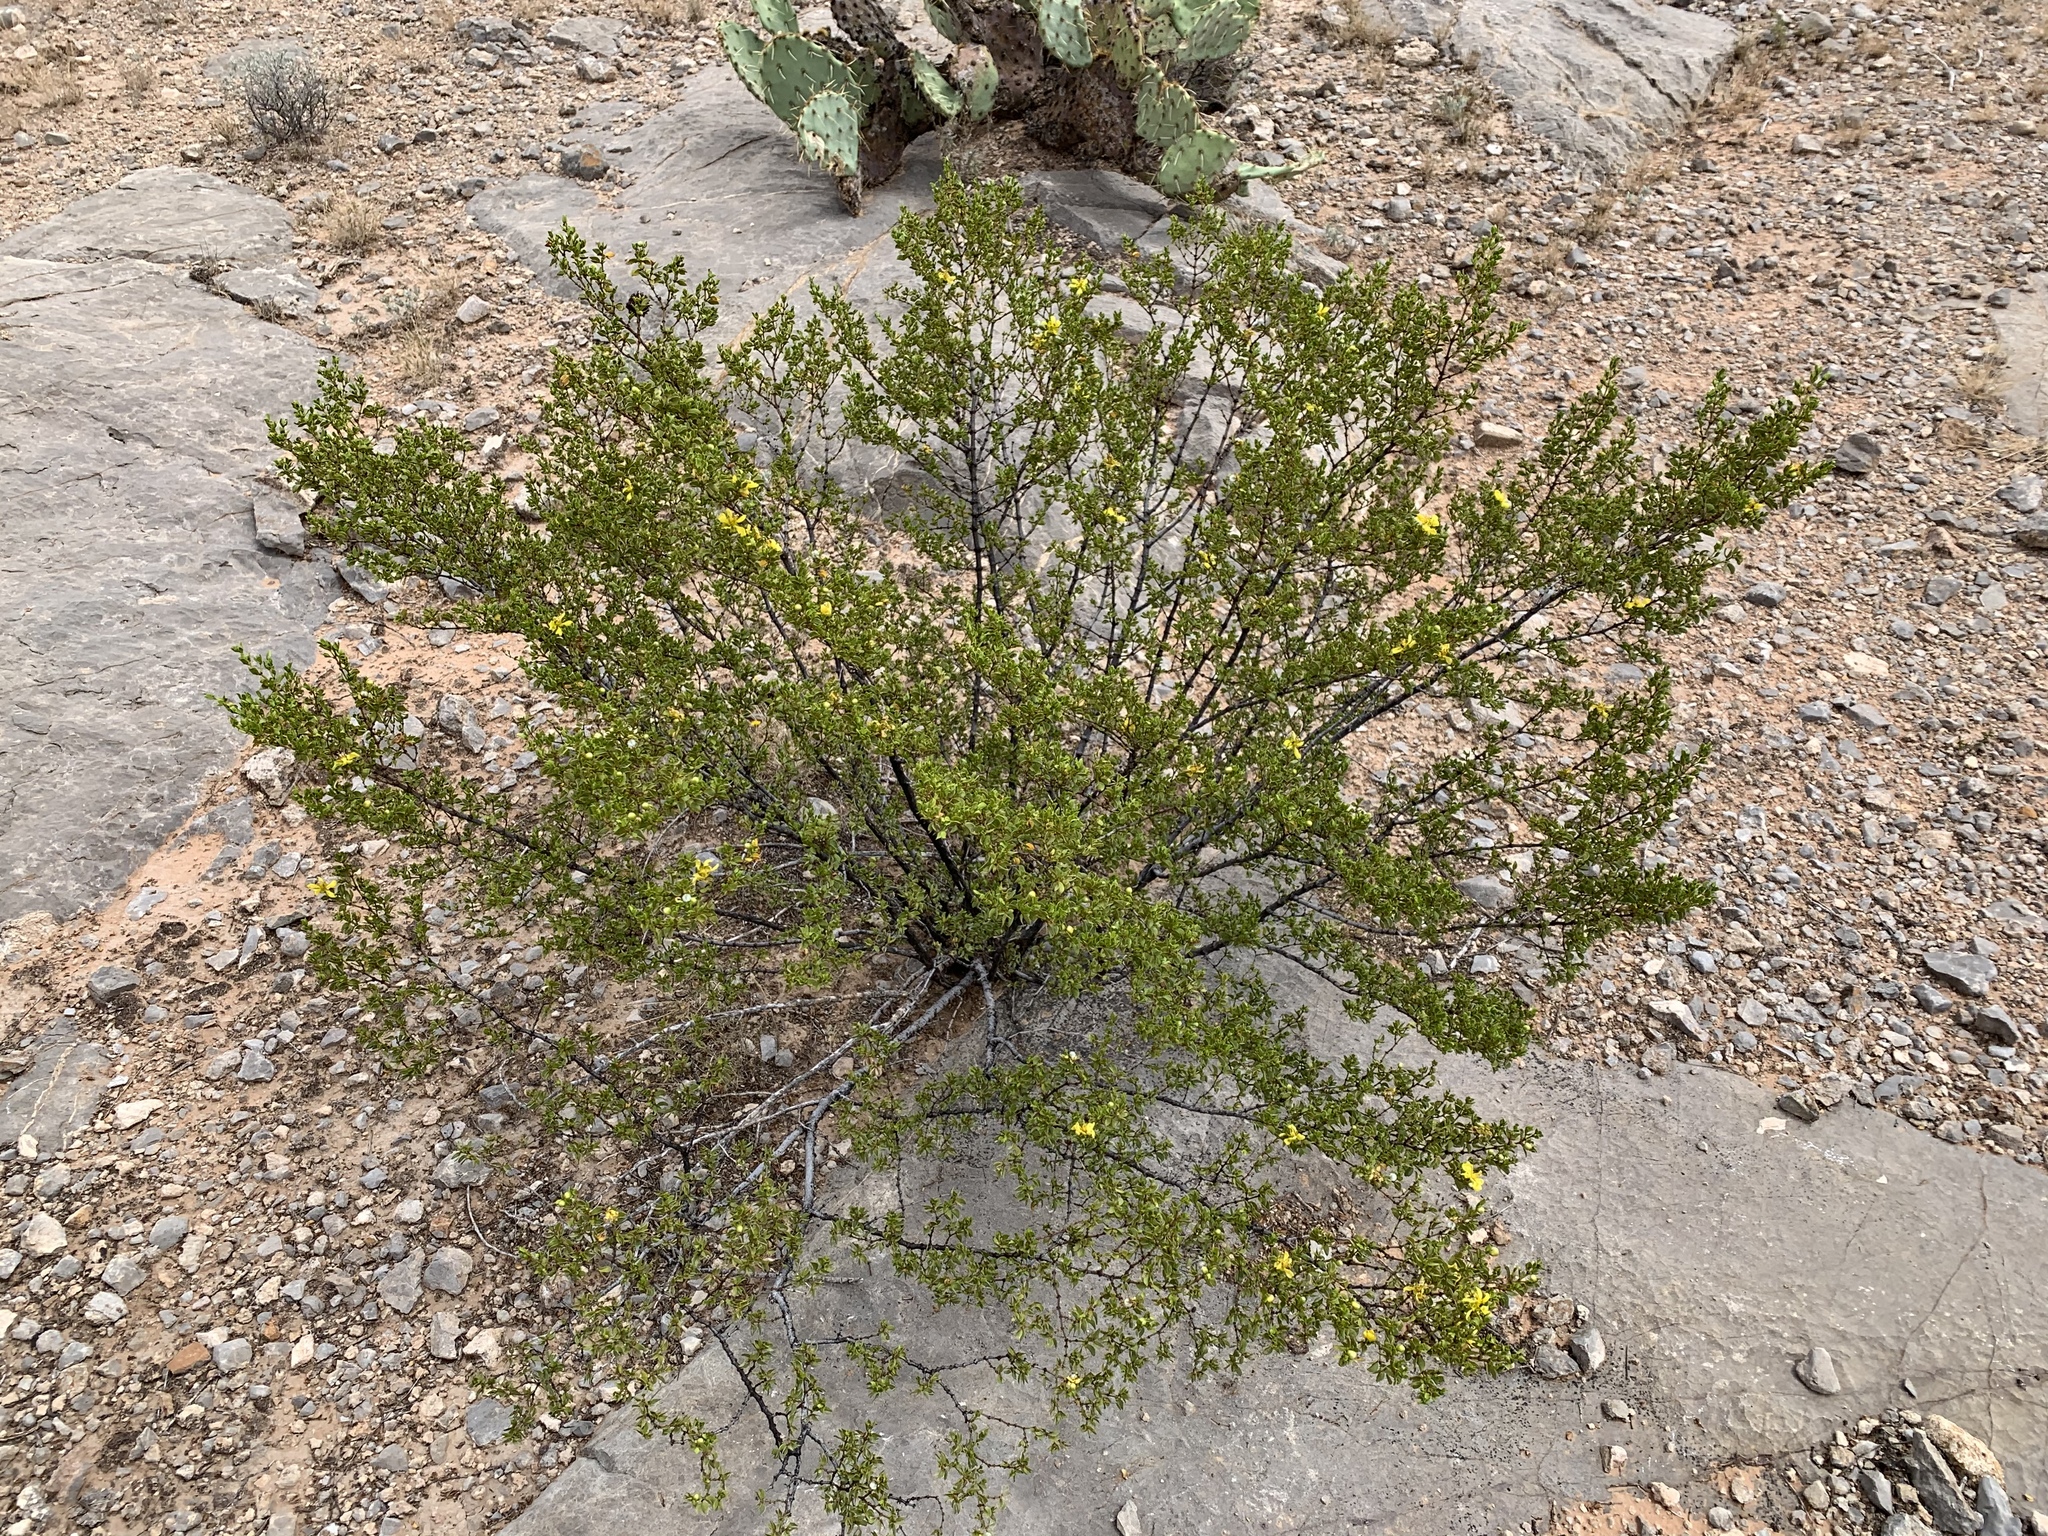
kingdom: Plantae
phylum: Tracheophyta
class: Magnoliopsida
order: Zygophyllales
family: Zygophyllaceae
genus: Larrea
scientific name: Larrea tridentata
